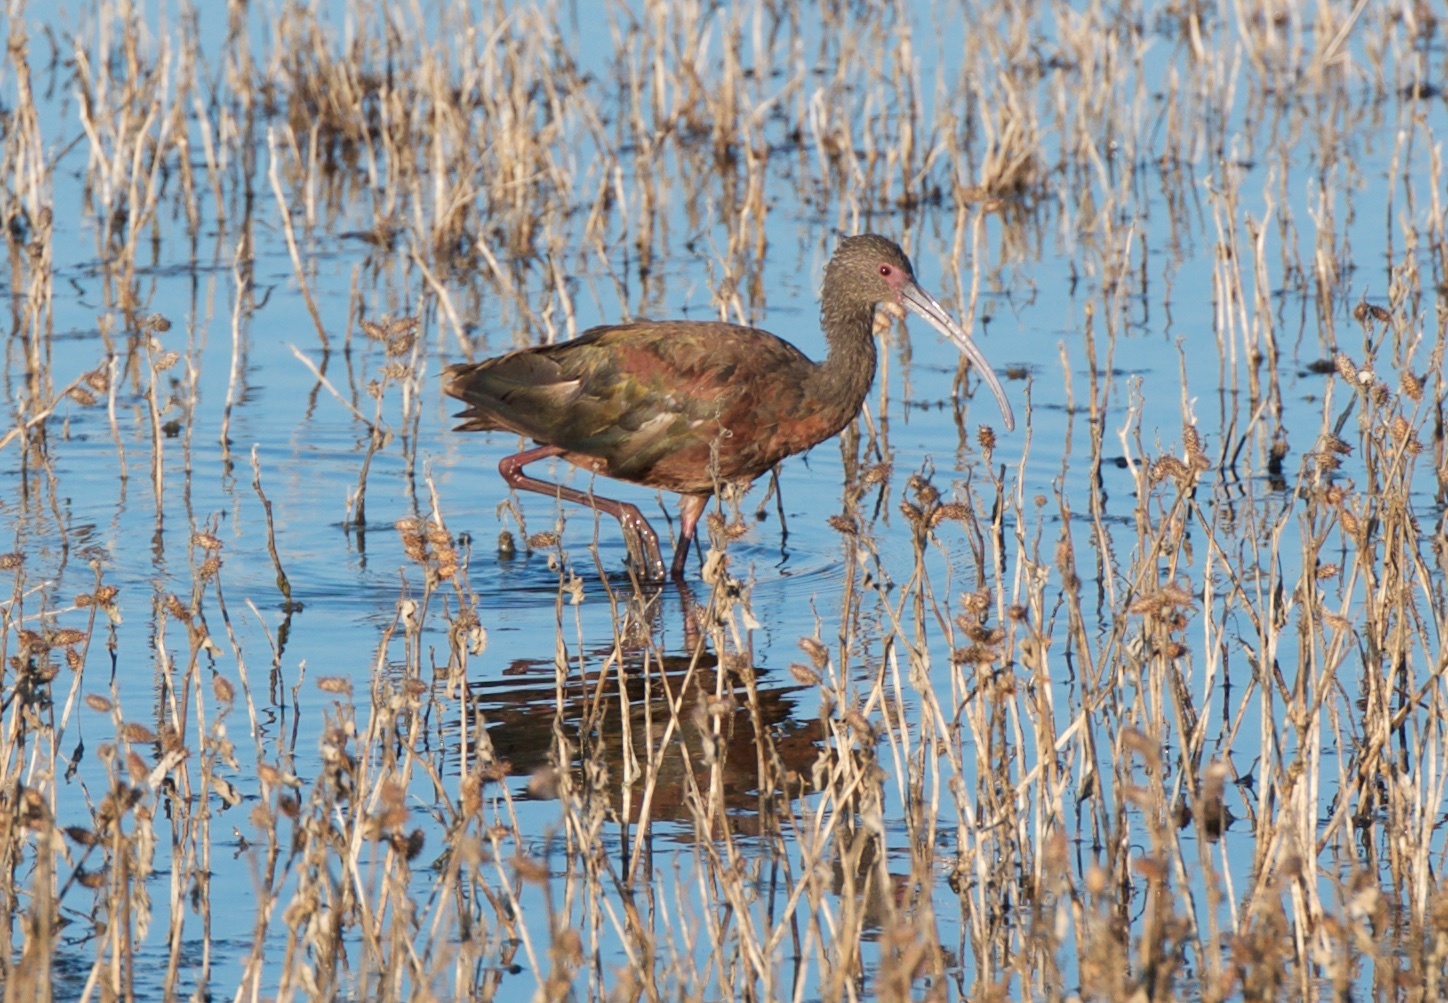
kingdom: Animalia
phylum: Chordata
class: Aves
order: Pelecaniformes
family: Threskiornithidae
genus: Plegadis
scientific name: Plegadis chihi
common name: White-faced ibis
